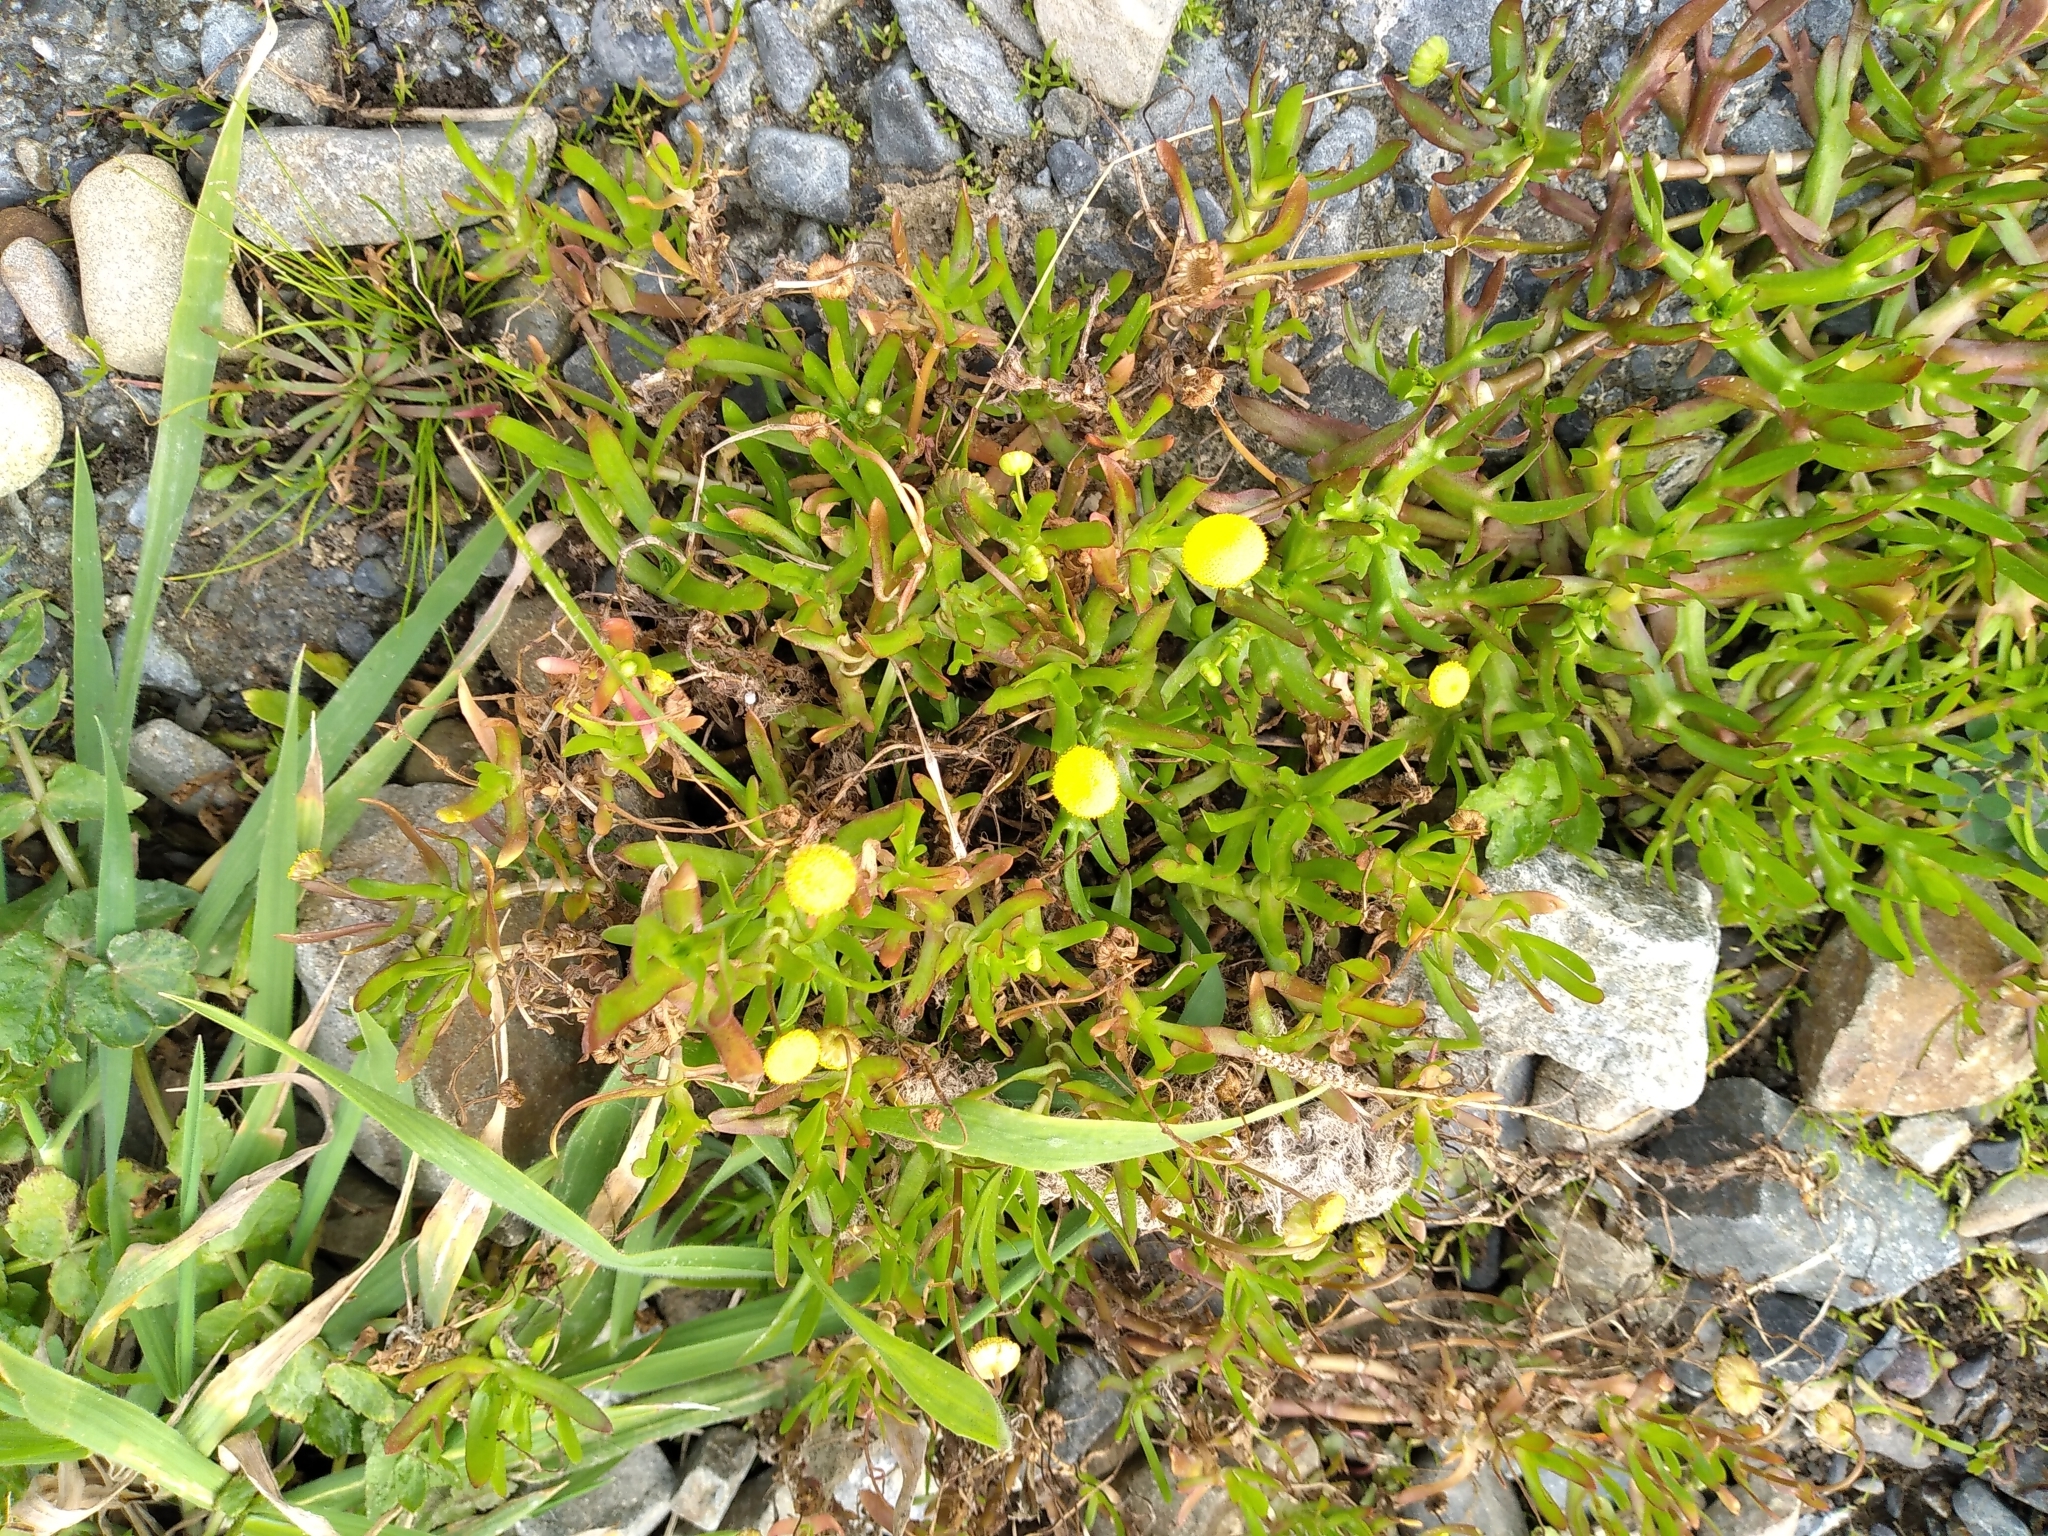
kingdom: Plantae
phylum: Tracheophyta
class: Magnoliopsida
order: Asterales
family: Asteraceae
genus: Cotula
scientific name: Cotula coronopifolia
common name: Buttonweed
